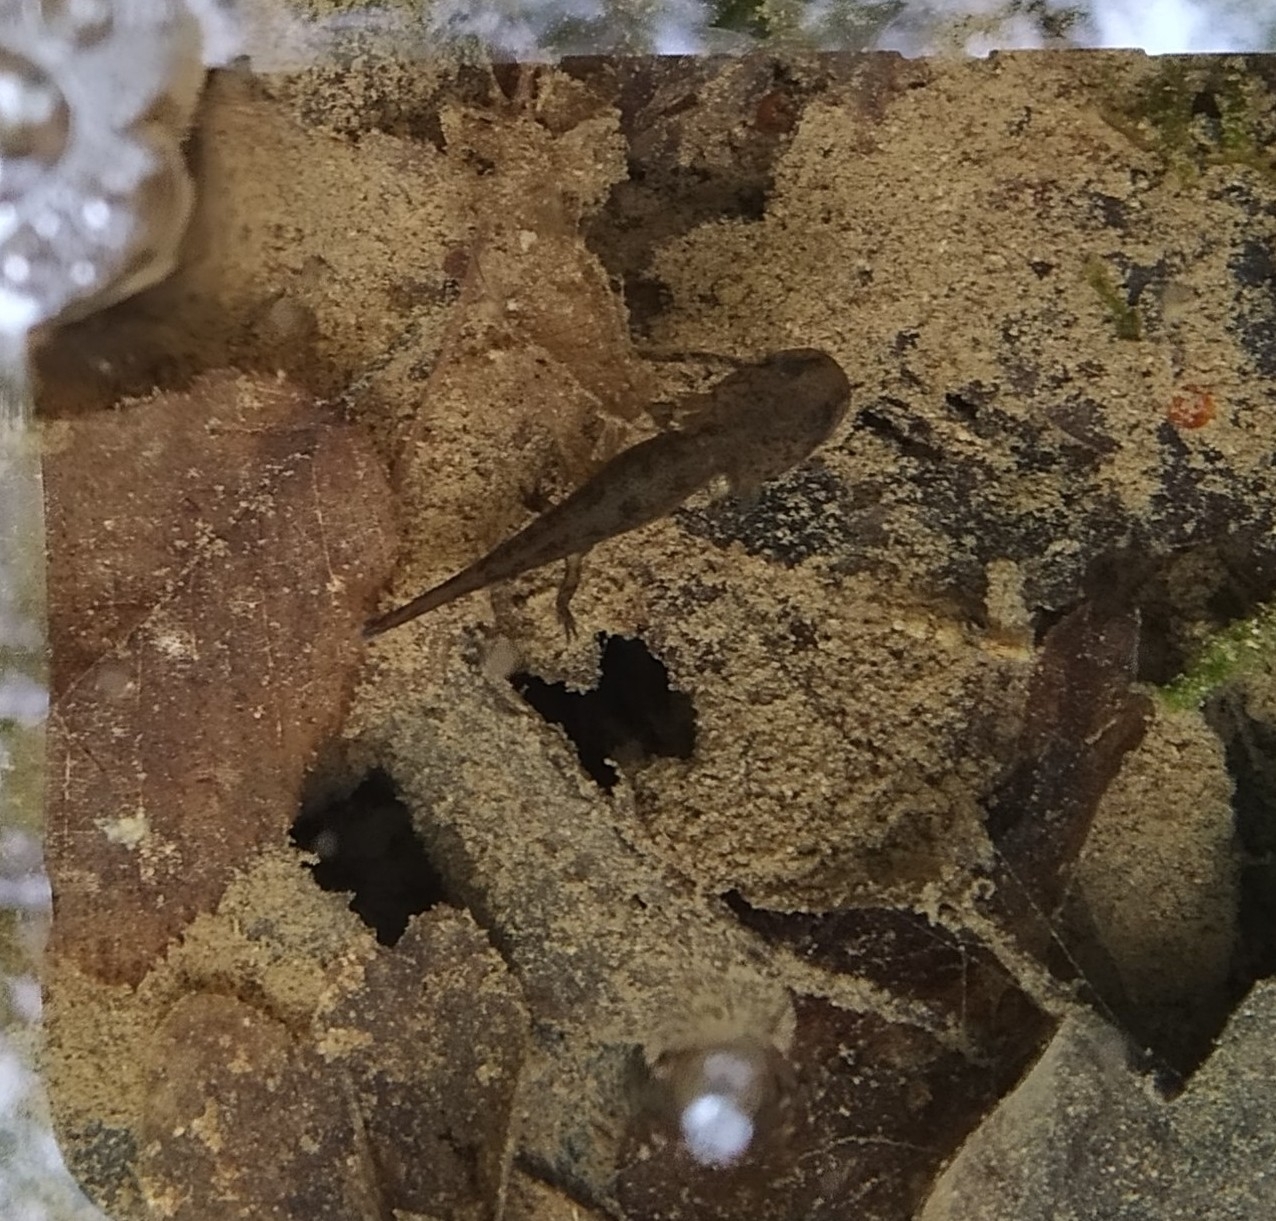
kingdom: Animalia
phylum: Chordata
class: Amphibia
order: Caudata
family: Salamandridae
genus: Salamandra
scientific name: Salamandra salamandra
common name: Fire salamander
